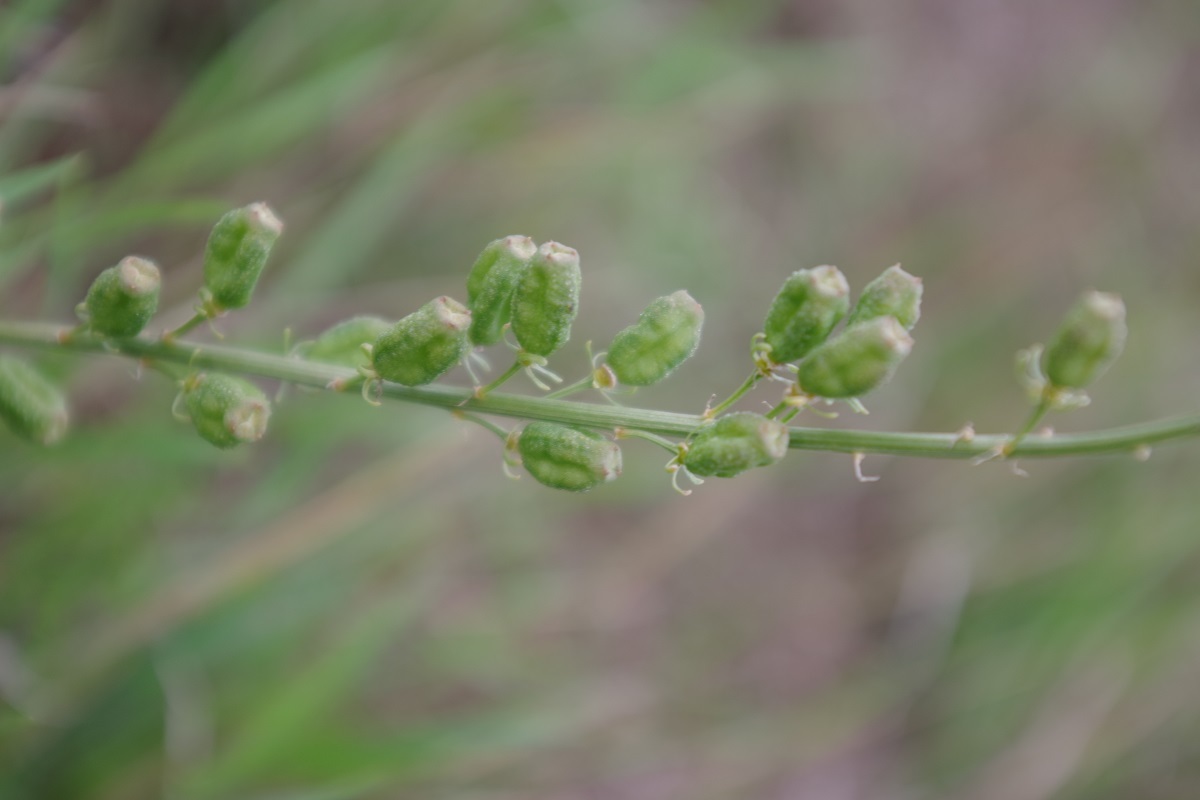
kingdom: Plantae
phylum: Tracheophyta
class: Magnoliopsida
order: Brassicales
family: Resedaceae
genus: Reseda
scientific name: Reseda lutea
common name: Wild mignonette
